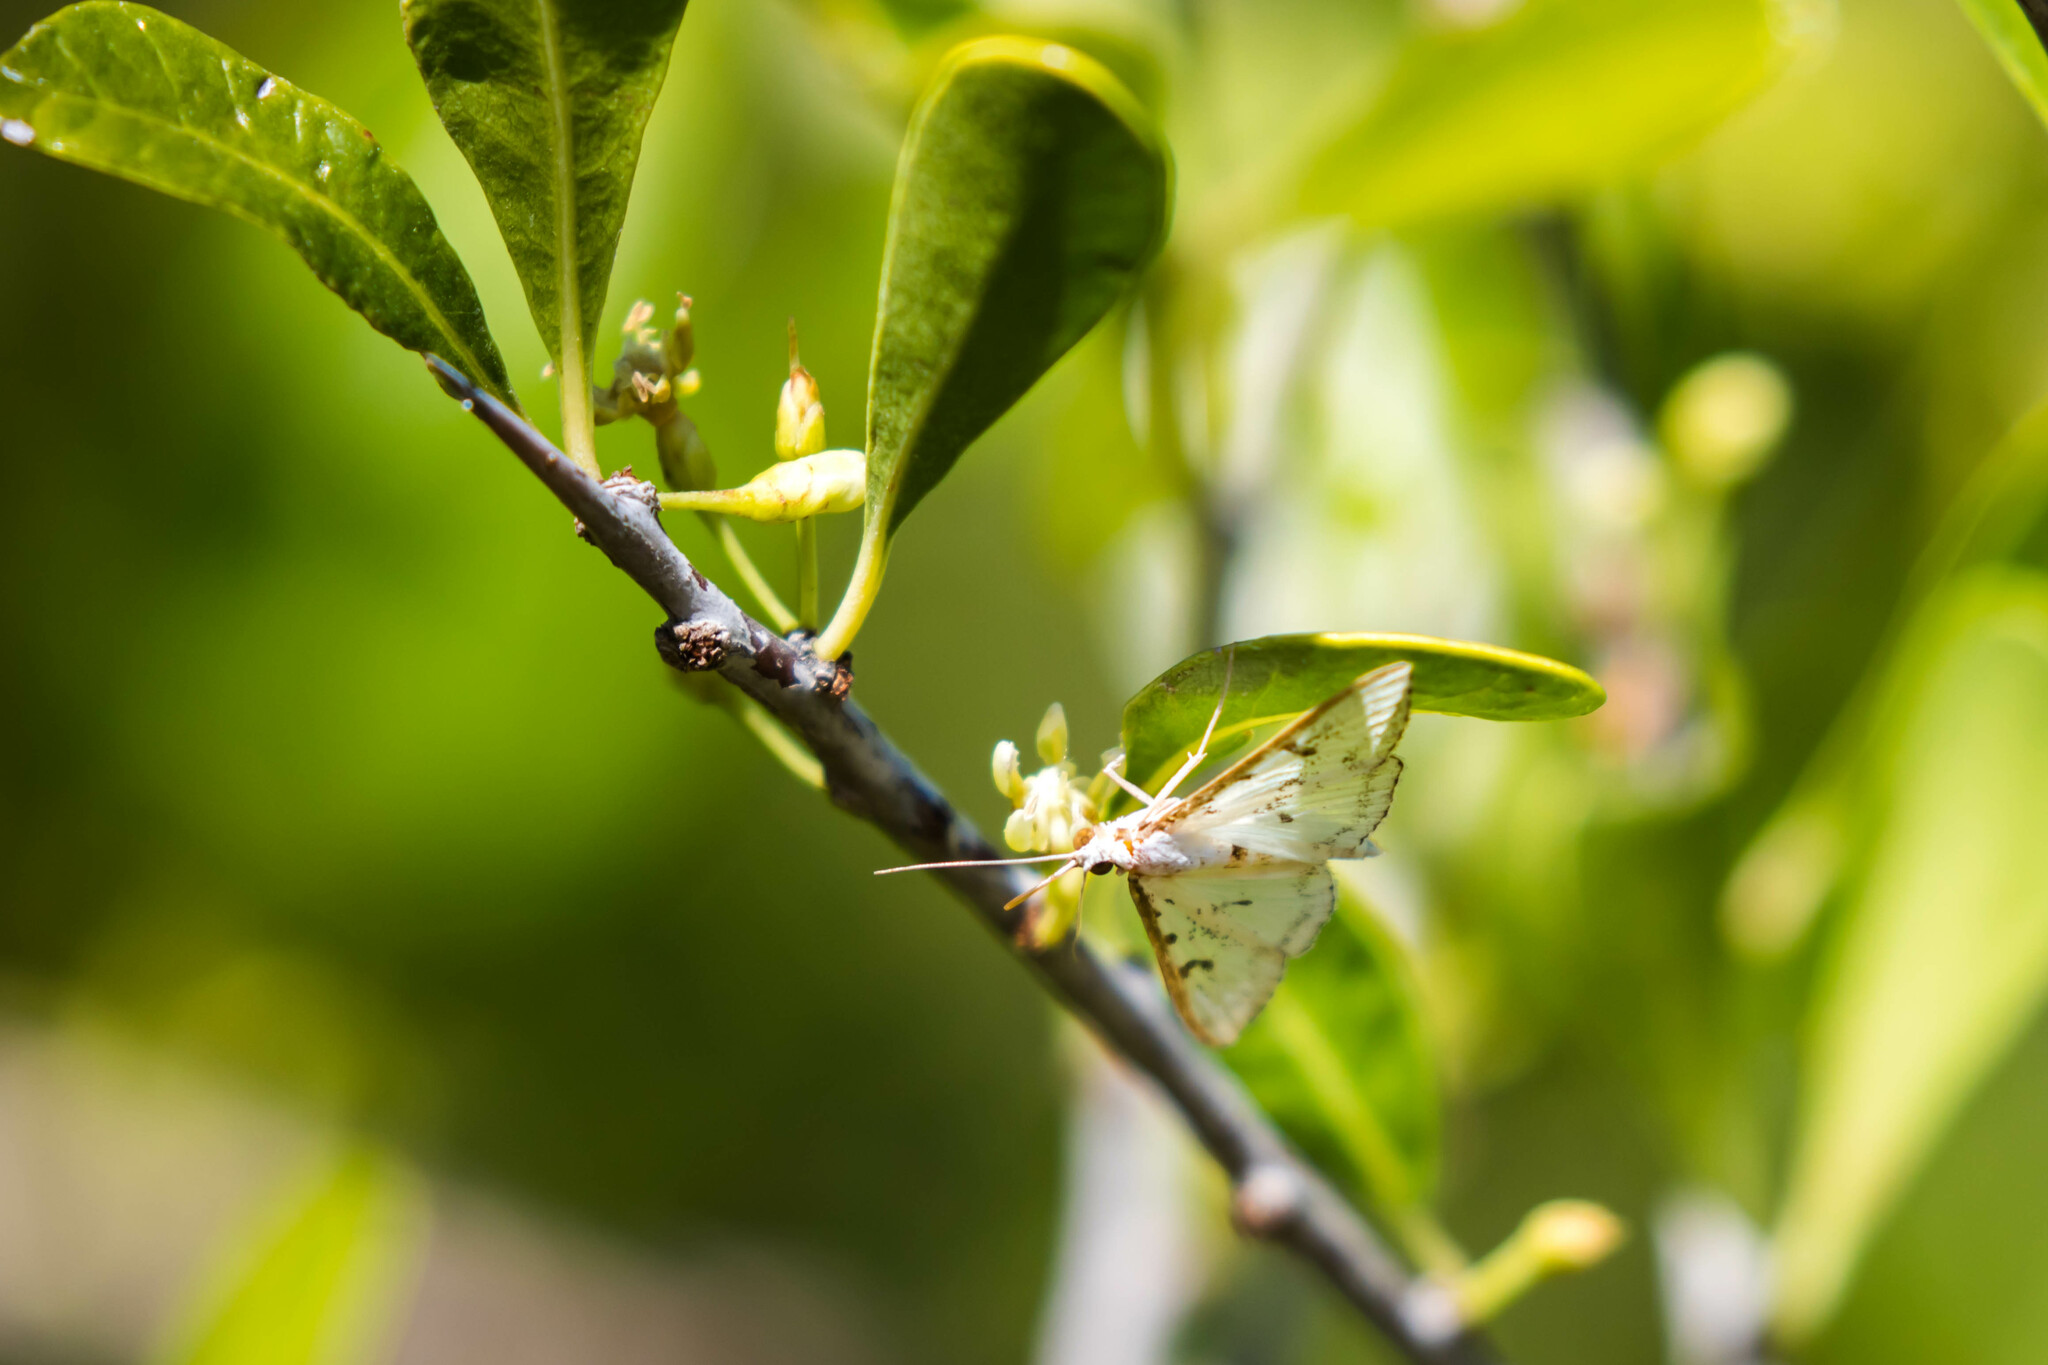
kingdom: Animalia
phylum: Arthropoda
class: Insecta
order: Lepidoptera
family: Crambidae
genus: Palpita
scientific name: Palpita gracilalis
